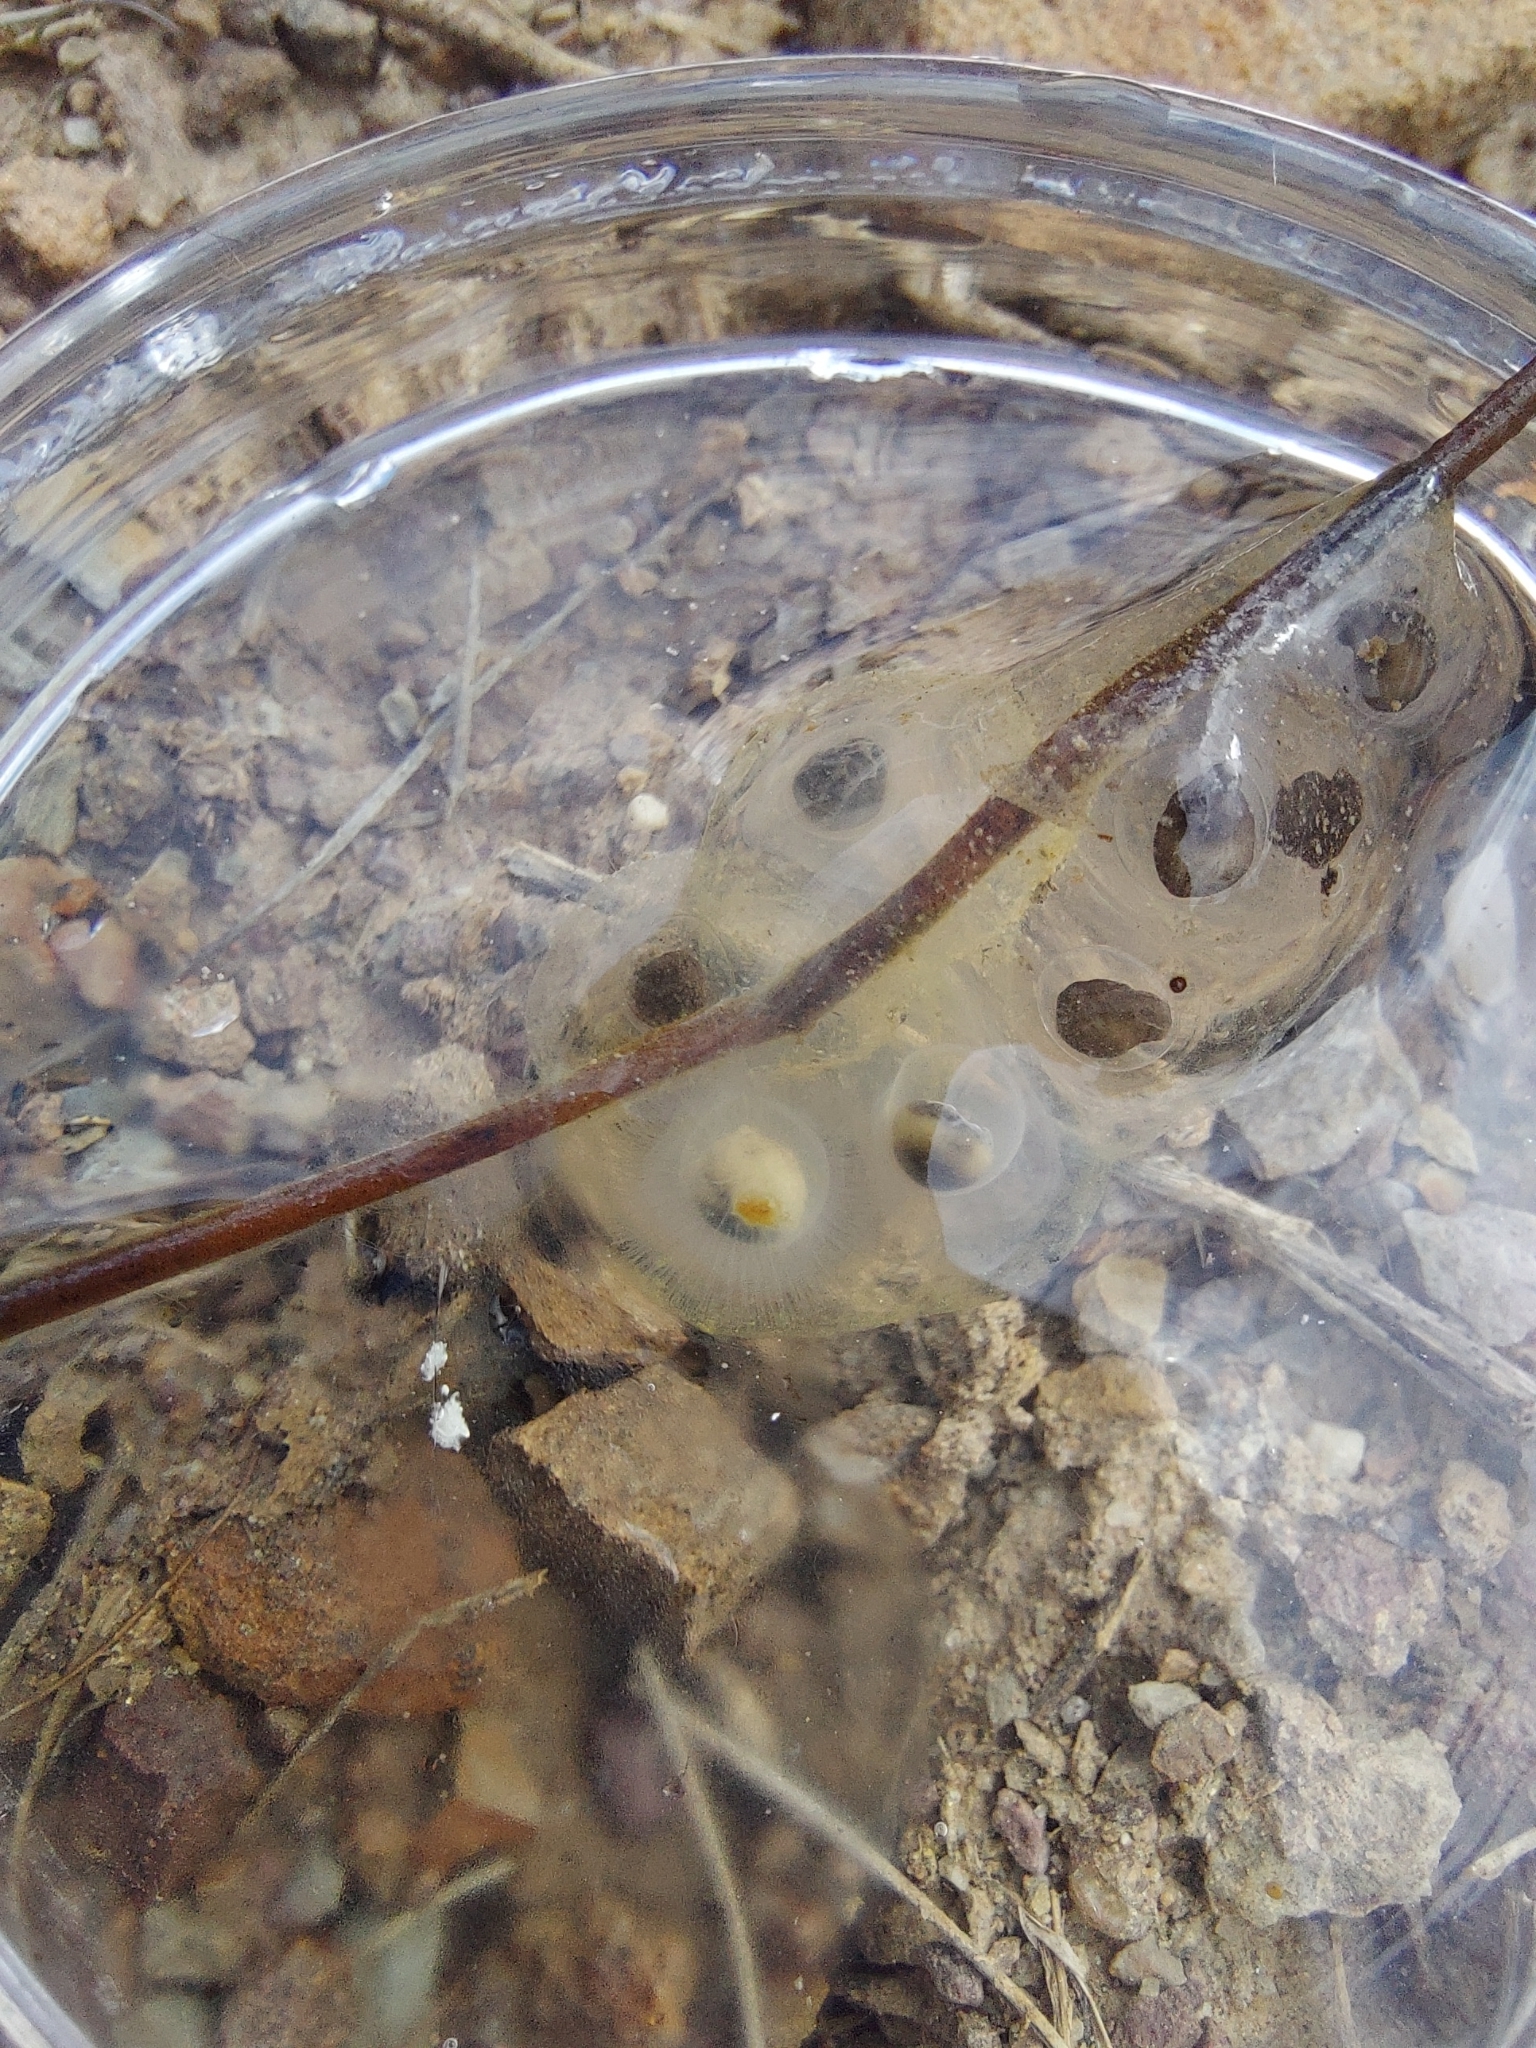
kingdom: Animalia
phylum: Chordata
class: Amphibia
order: Caudata
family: Ambystomatidae
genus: Ambystoma
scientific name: Ambystoma macrodactylum
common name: Long-toed salamander
